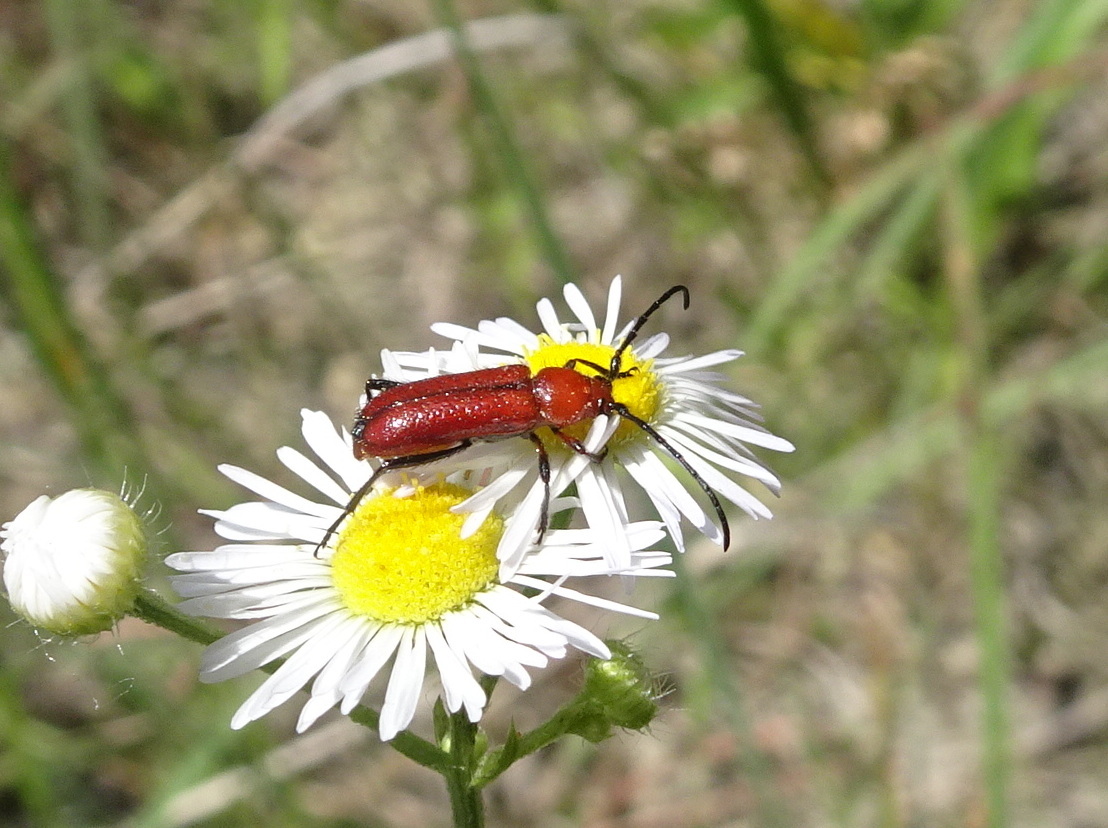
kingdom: Animalia
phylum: Arthropoda
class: Insecta
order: Coleoptera
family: Cerambycidae
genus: Batyle
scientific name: Batyle suturalis
